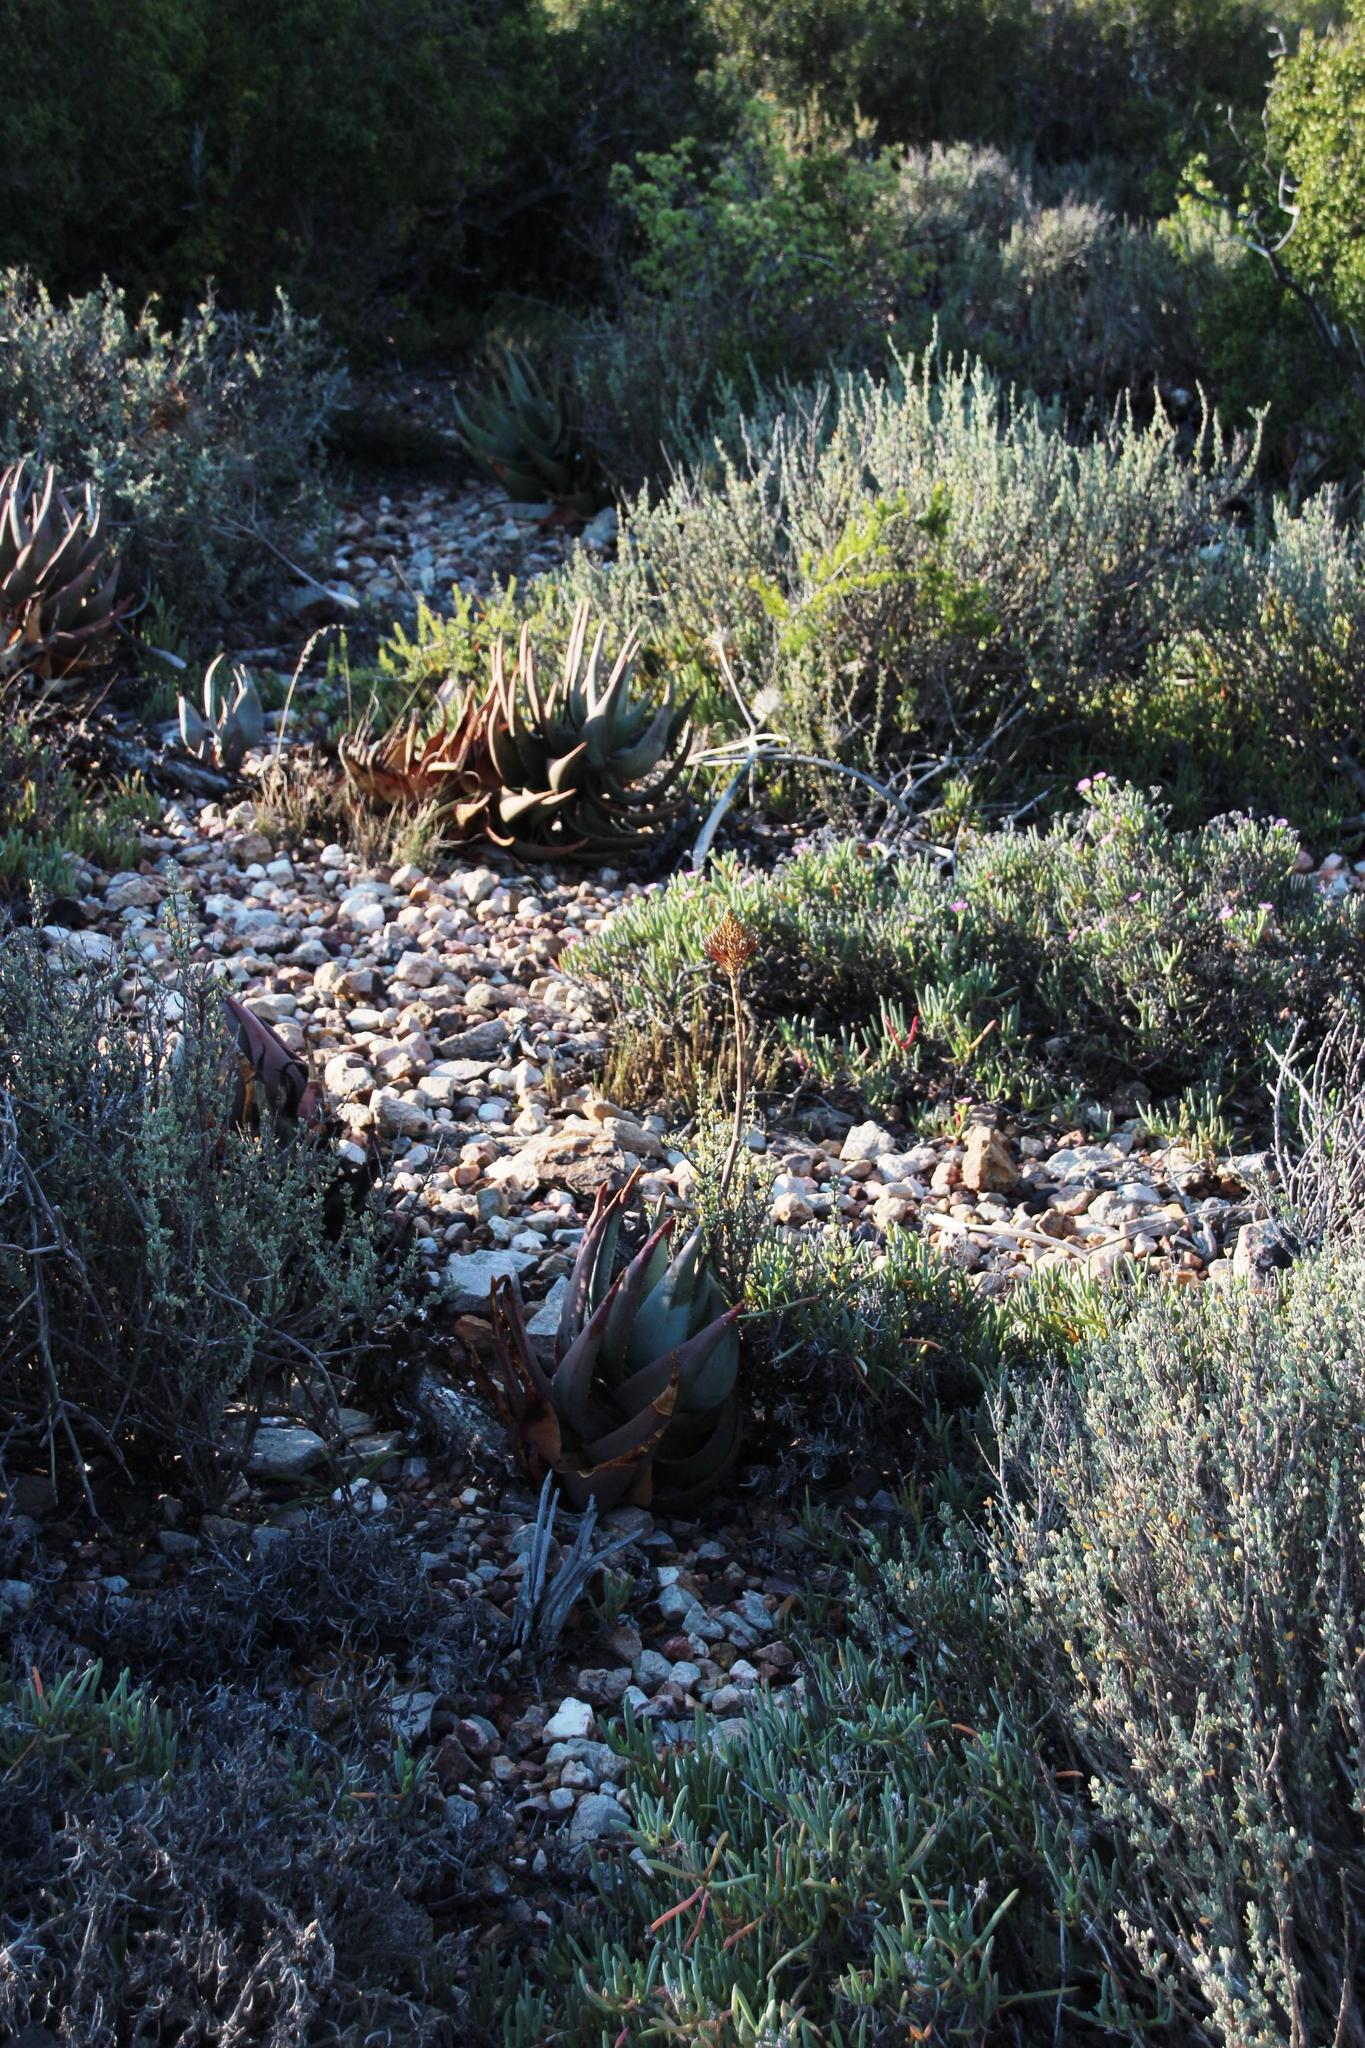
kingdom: Plantae
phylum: Tracheophyta
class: Liliopsida
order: Asparagales
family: Asphodelaceae
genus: Aloe
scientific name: Aloe comptonii
